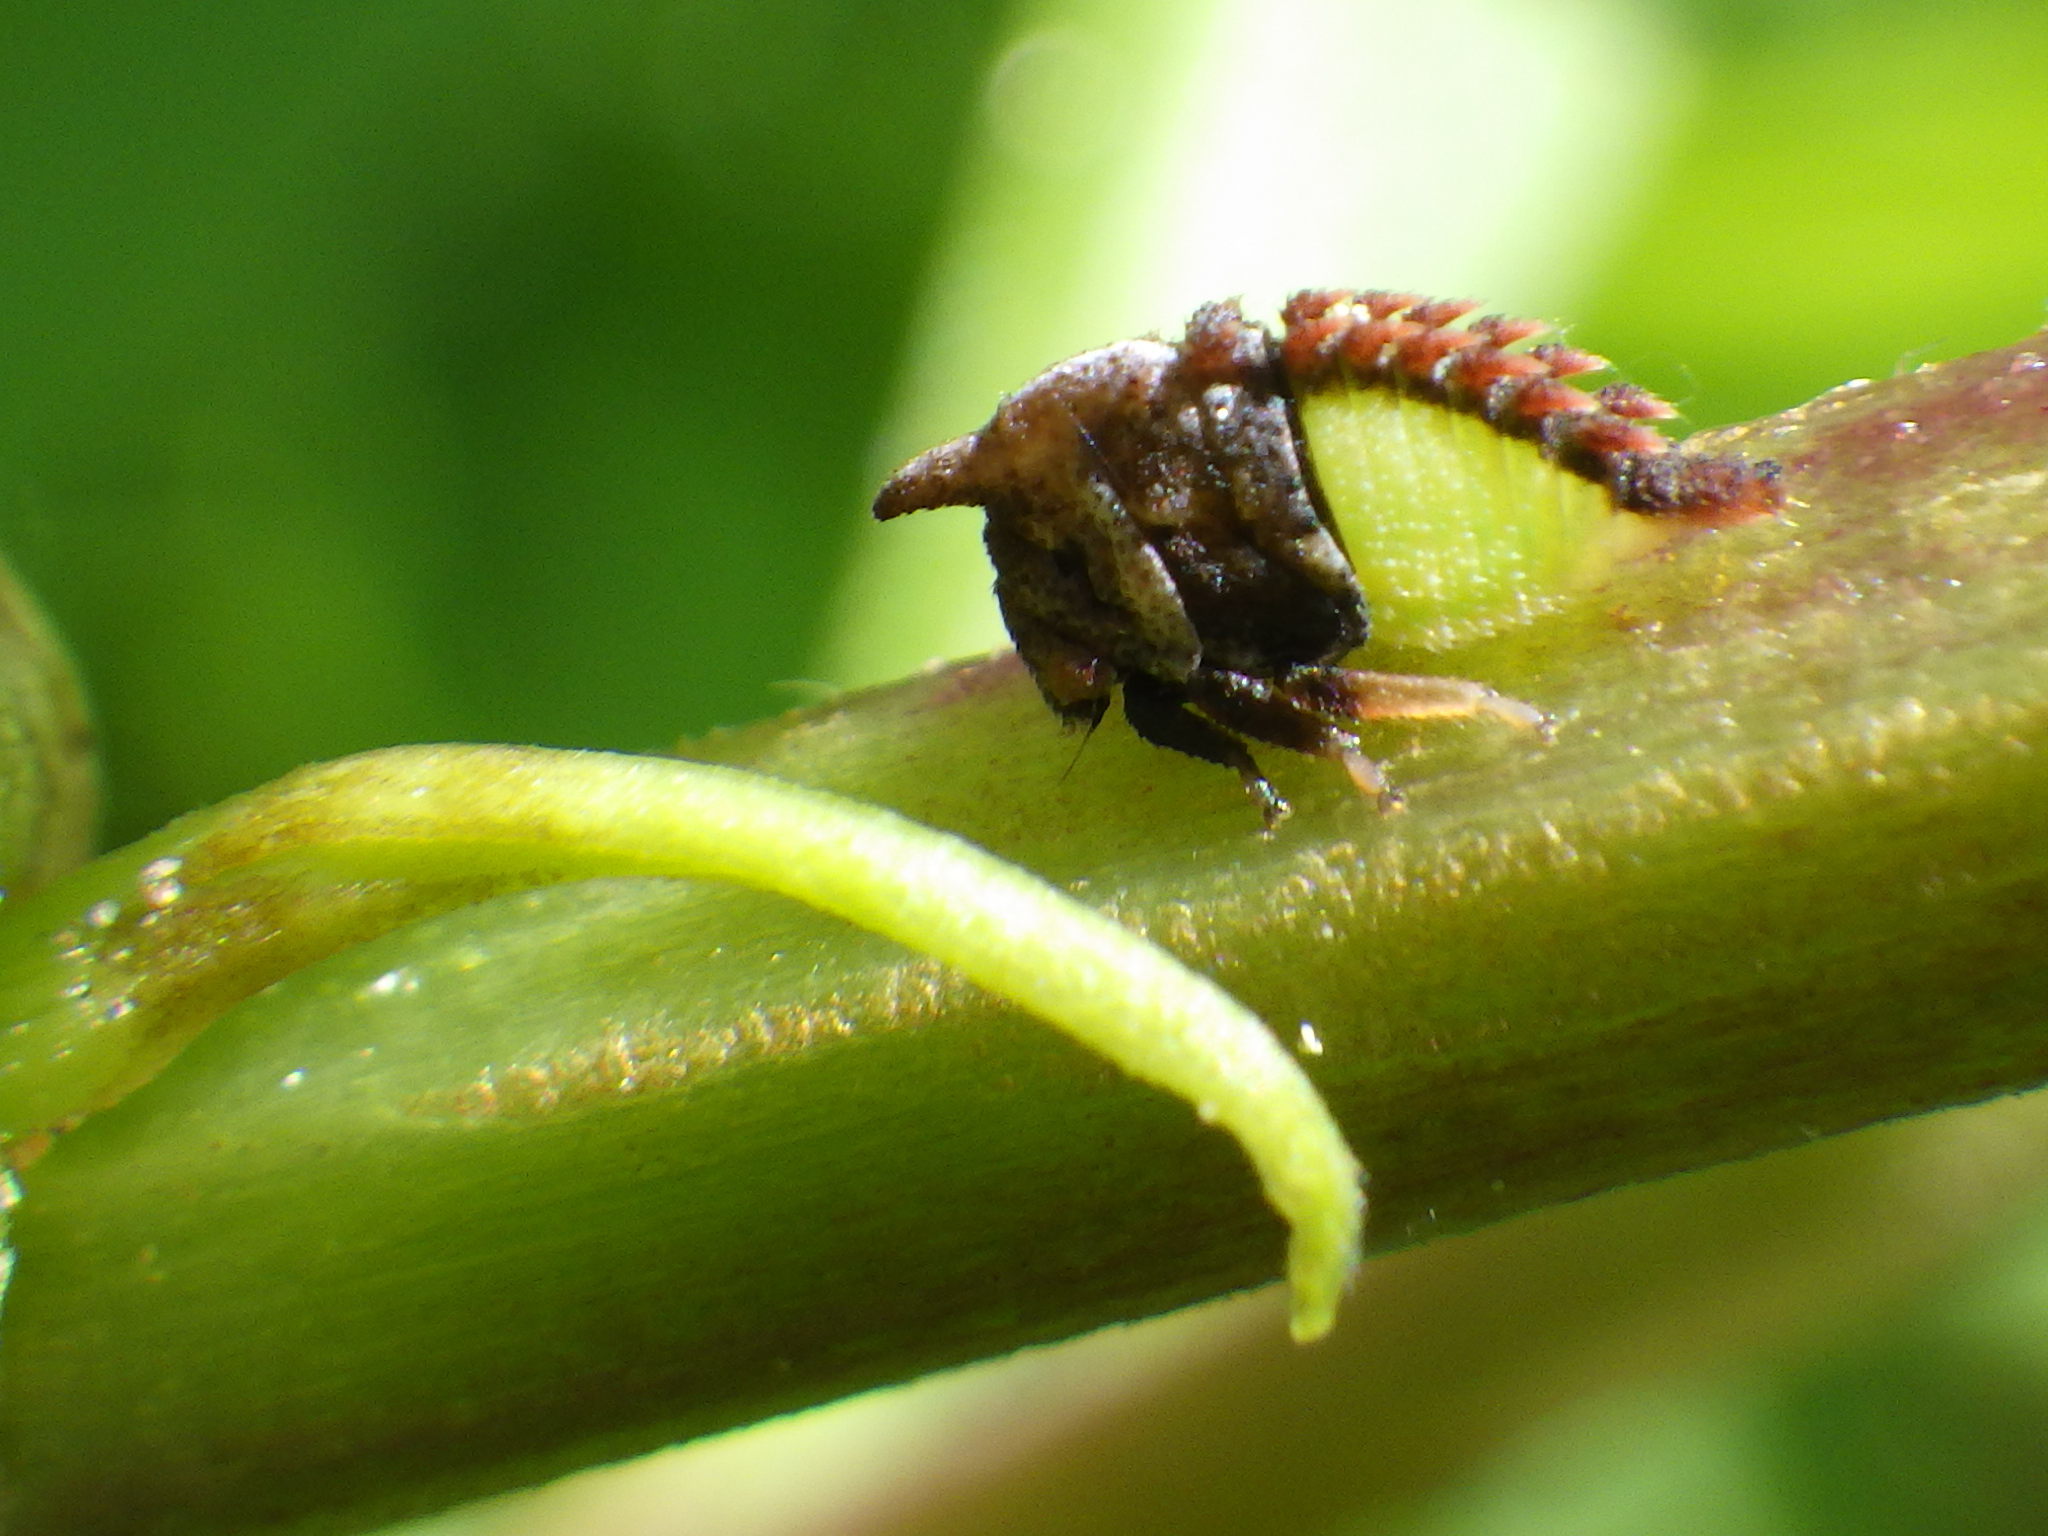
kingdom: Animalia
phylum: Arthropoda
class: Insecta
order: Hemiptera
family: Membracidae
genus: Enchenopa
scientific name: Enchenopa latipes
